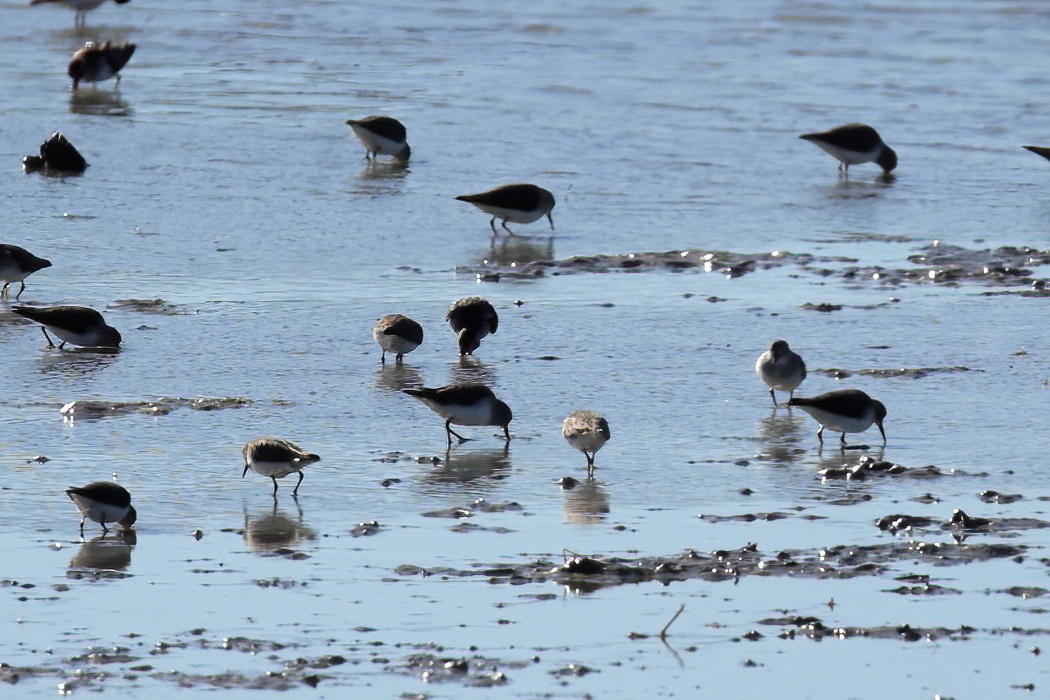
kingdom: Animalia
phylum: Chordata
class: Aves
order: Charadriiformes
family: Scolopacidae
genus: Calidris
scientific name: Calidris minutilla
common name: Least sandpiper
